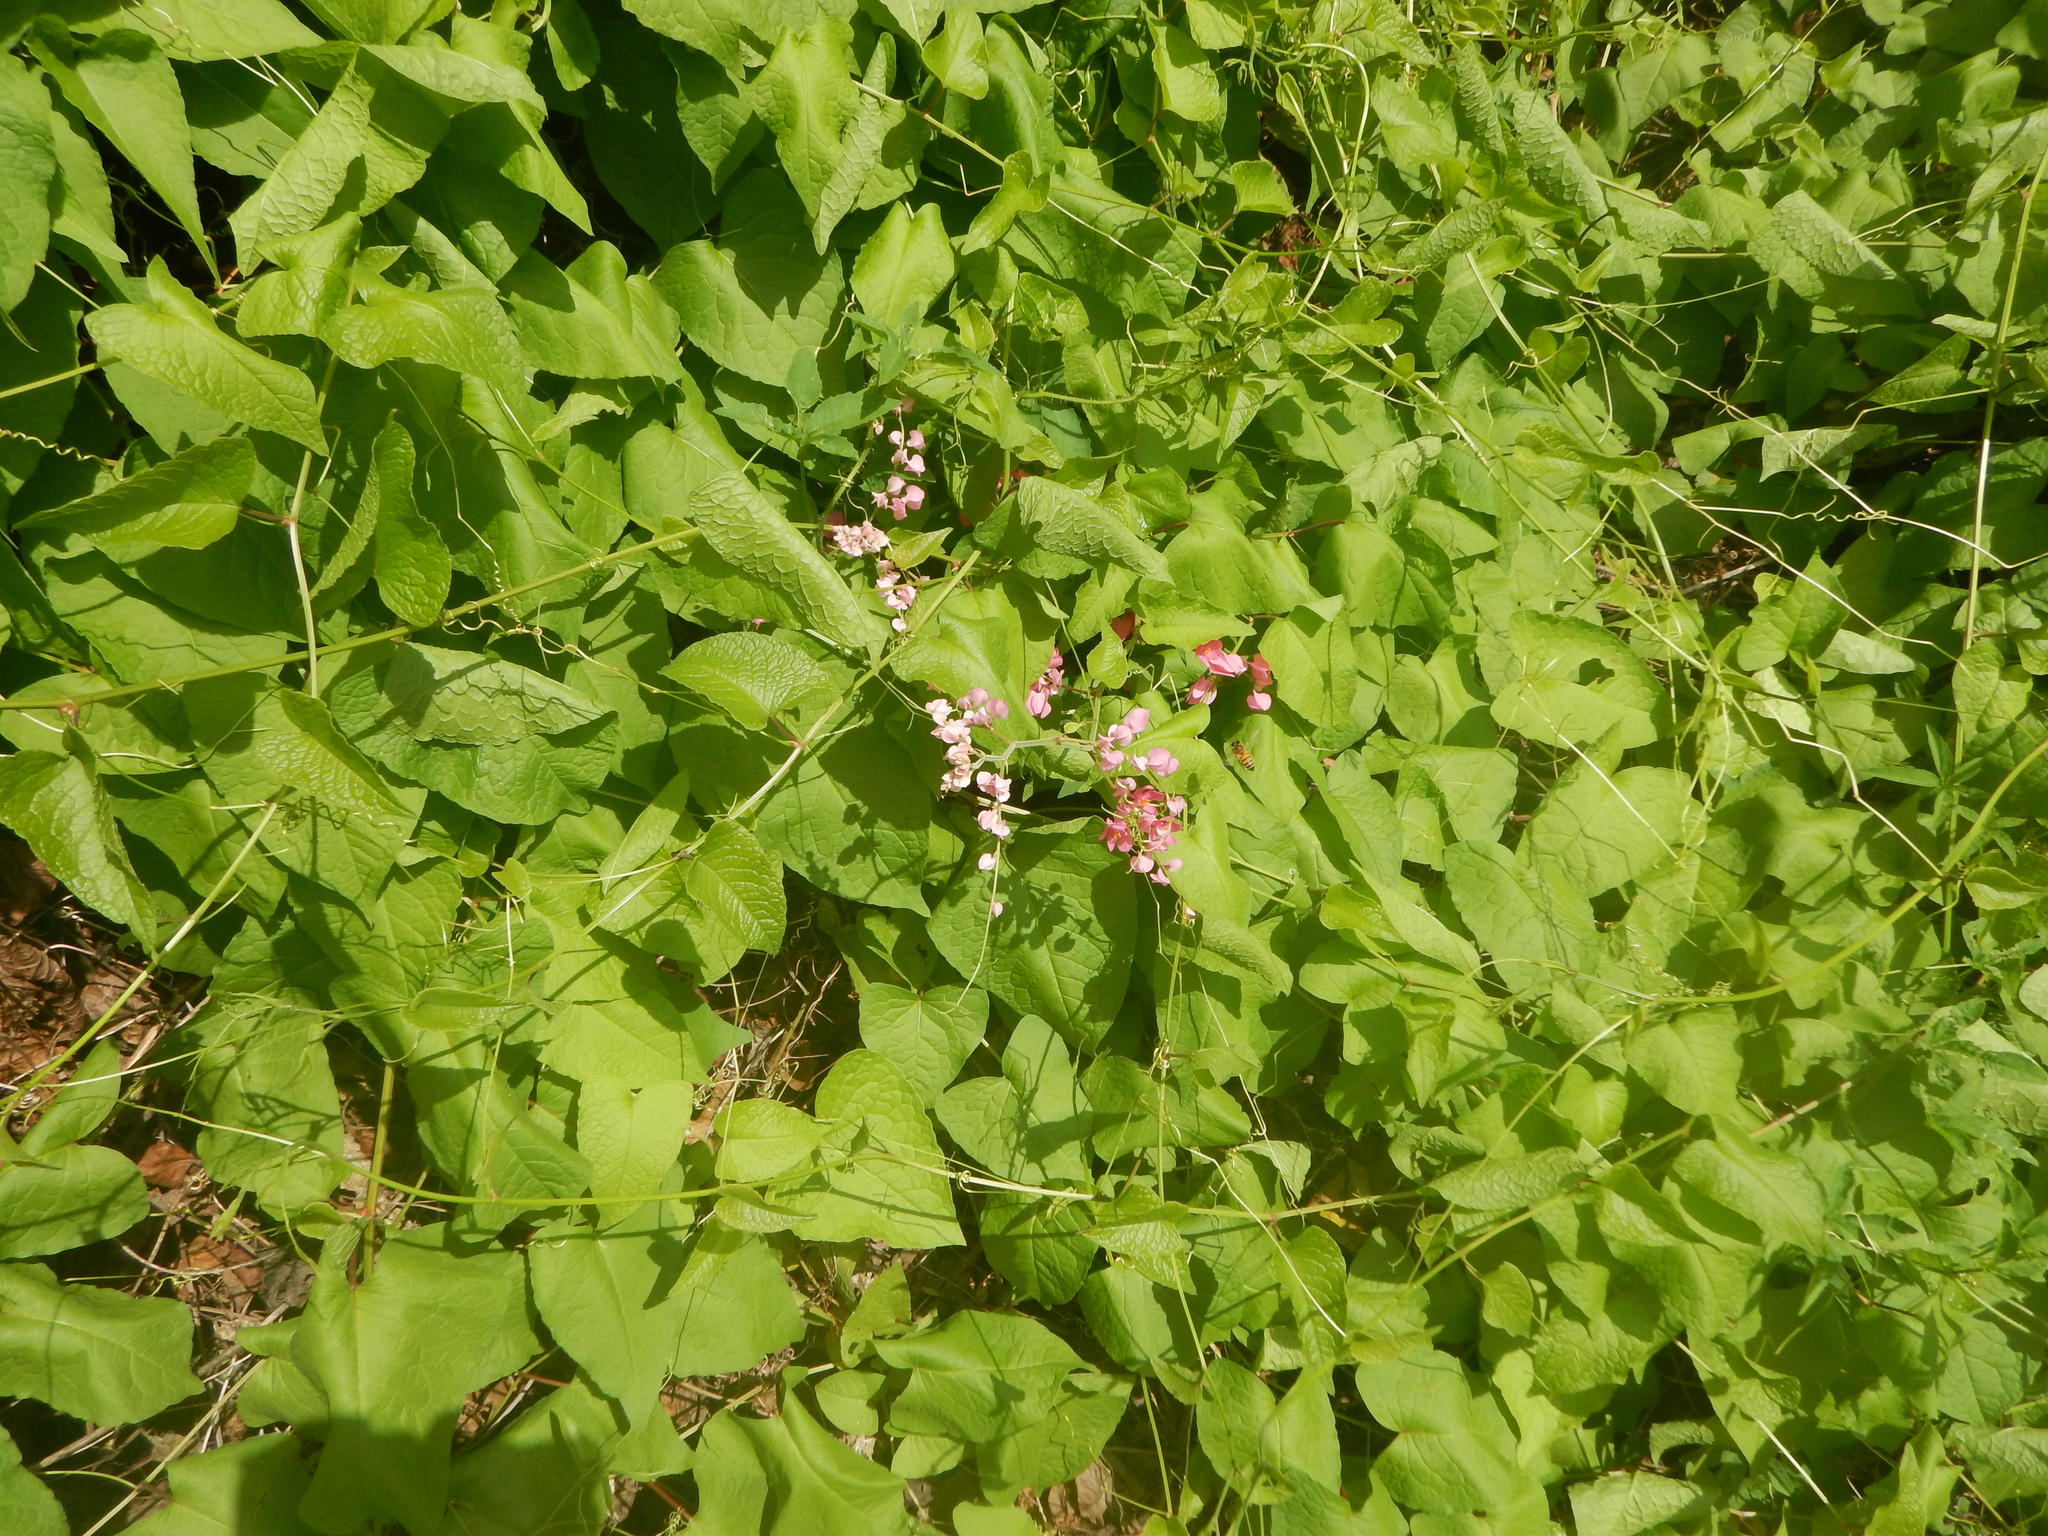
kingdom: Plantae
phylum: Tracheophyta
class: Magnoliopsida
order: Caryophyllales
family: Polygonaceae
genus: Antigonon
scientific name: Antigonon leptopus
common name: Coral vine
